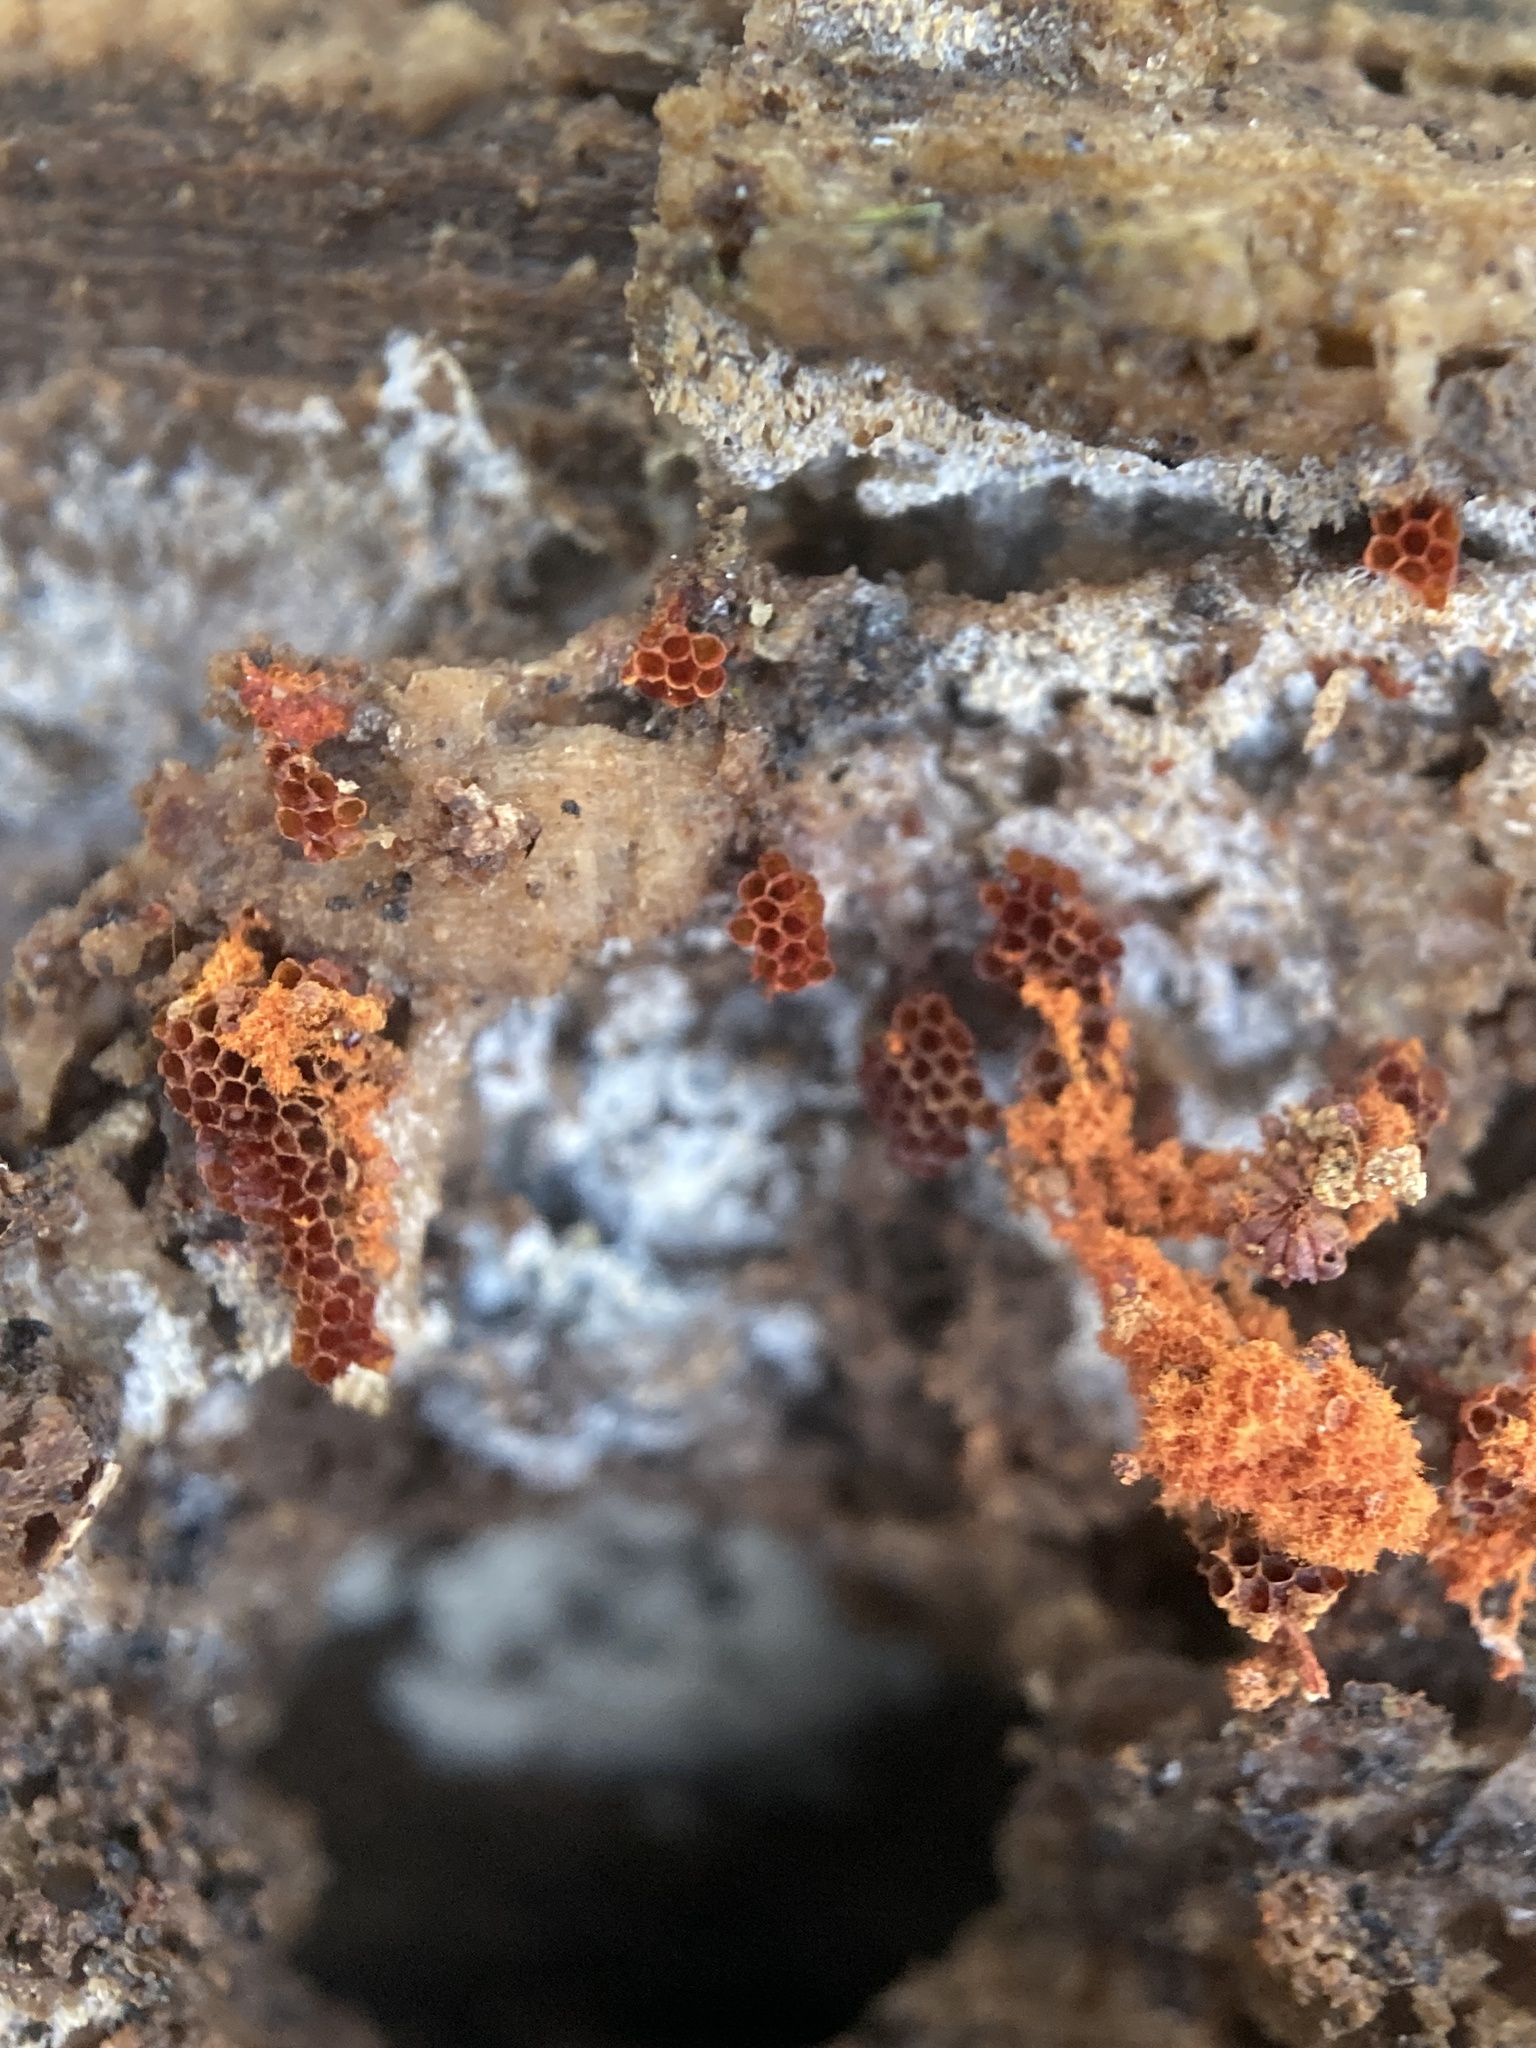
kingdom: Protozoa
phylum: Mycetozoa
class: Myxomycetes
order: Trichiales
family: Trichiaceae
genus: Metatrichia
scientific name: Metatrichia vesparia
